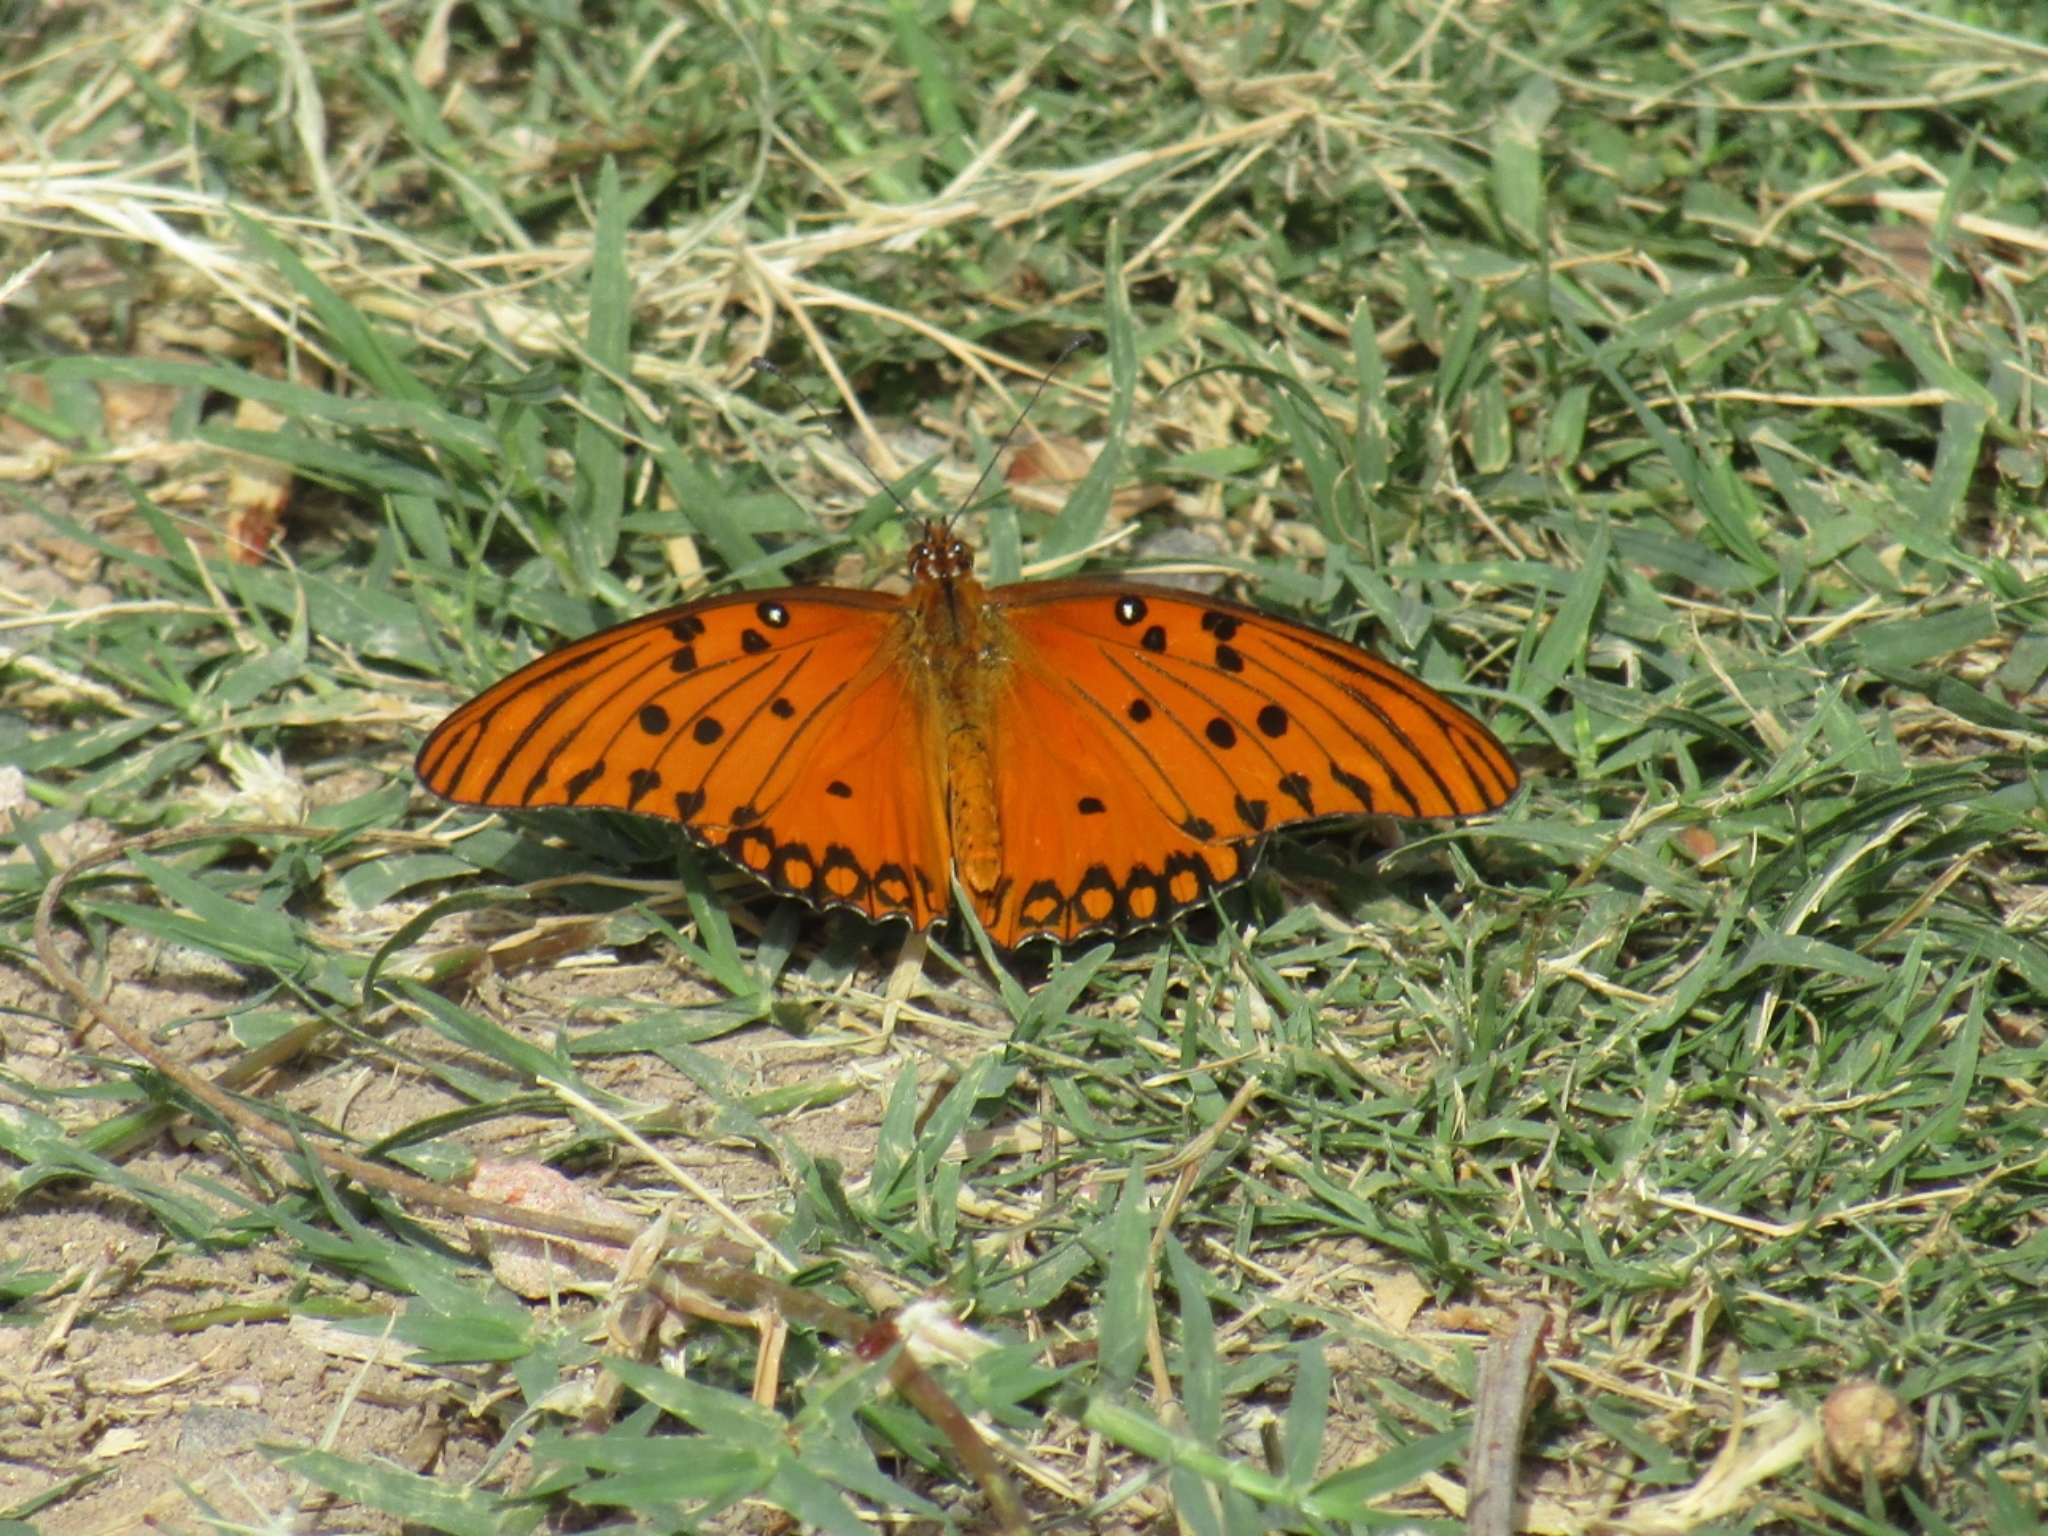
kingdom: Animalia
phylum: Arthropoda
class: Insecta
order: Lepidoptera
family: Nymphalidae
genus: Dione
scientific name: Dione vanillae
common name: Gulf fritillary
